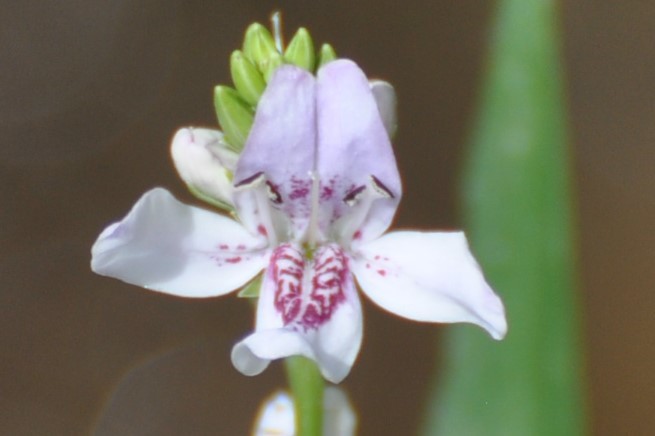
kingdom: Plantae
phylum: Tracheophyta
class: Magnoliopsida
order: Lamiales
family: Acanthaceae
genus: Dianthera
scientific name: Dianthera americana
